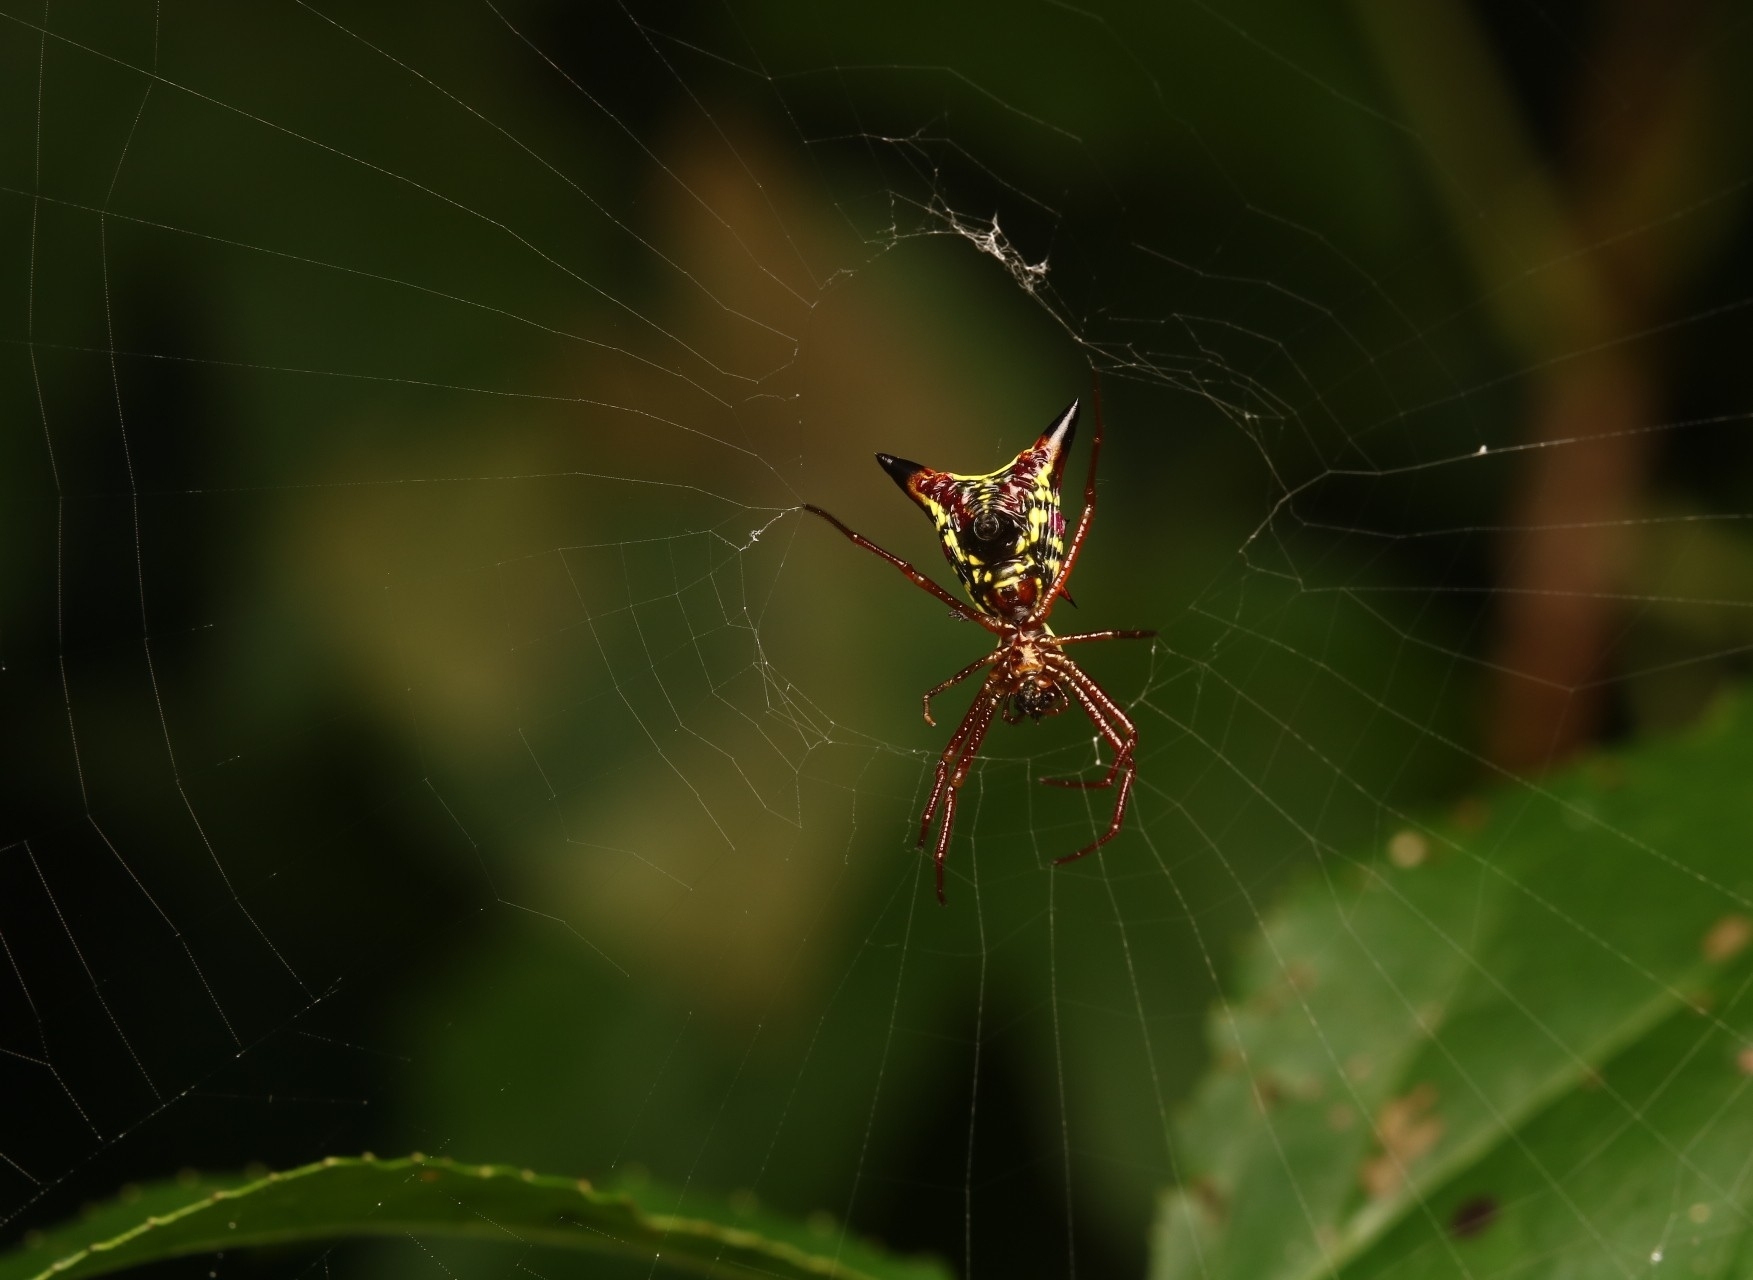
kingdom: Animalia
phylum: Arthropoda
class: Arachnida
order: Araneae
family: Araneidae
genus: Micrathena
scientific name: Micrathena sagittata
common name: Orb weavers
